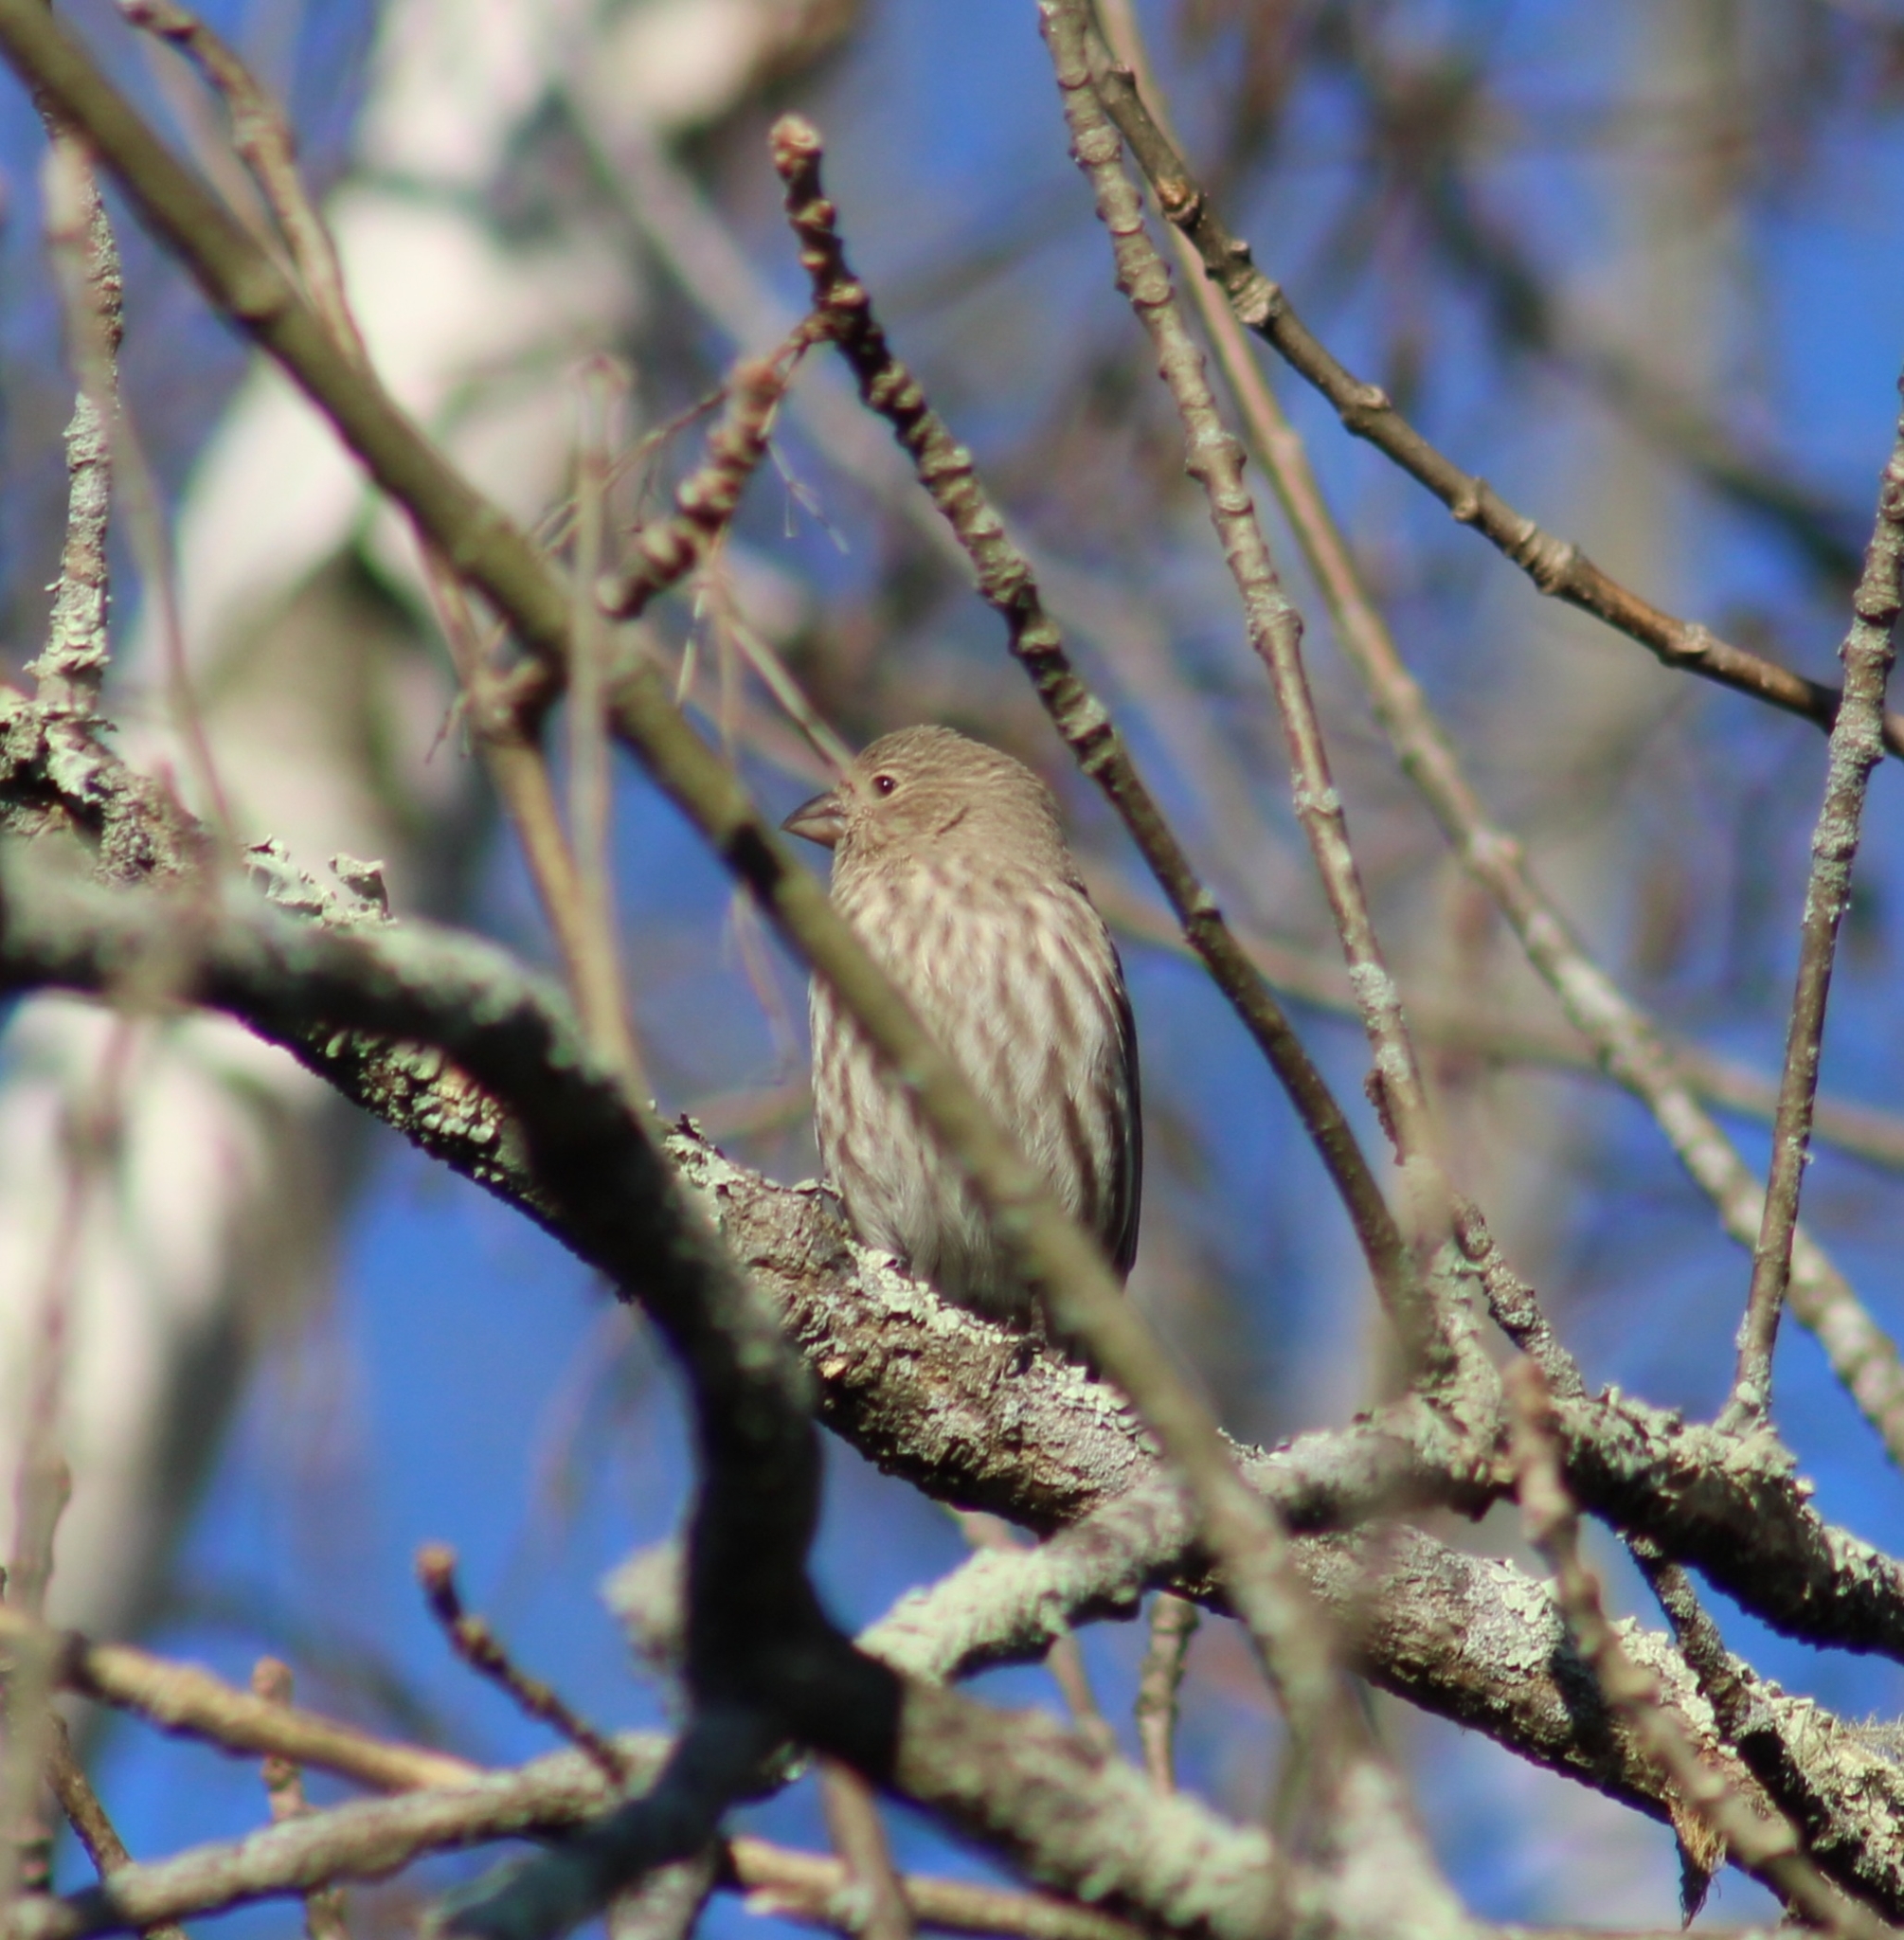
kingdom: Animalia
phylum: Chordata
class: Aves
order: Passeriformes
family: Fringillidae
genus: Haemorhous
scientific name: Haemorhous mexicanus
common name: House finch
